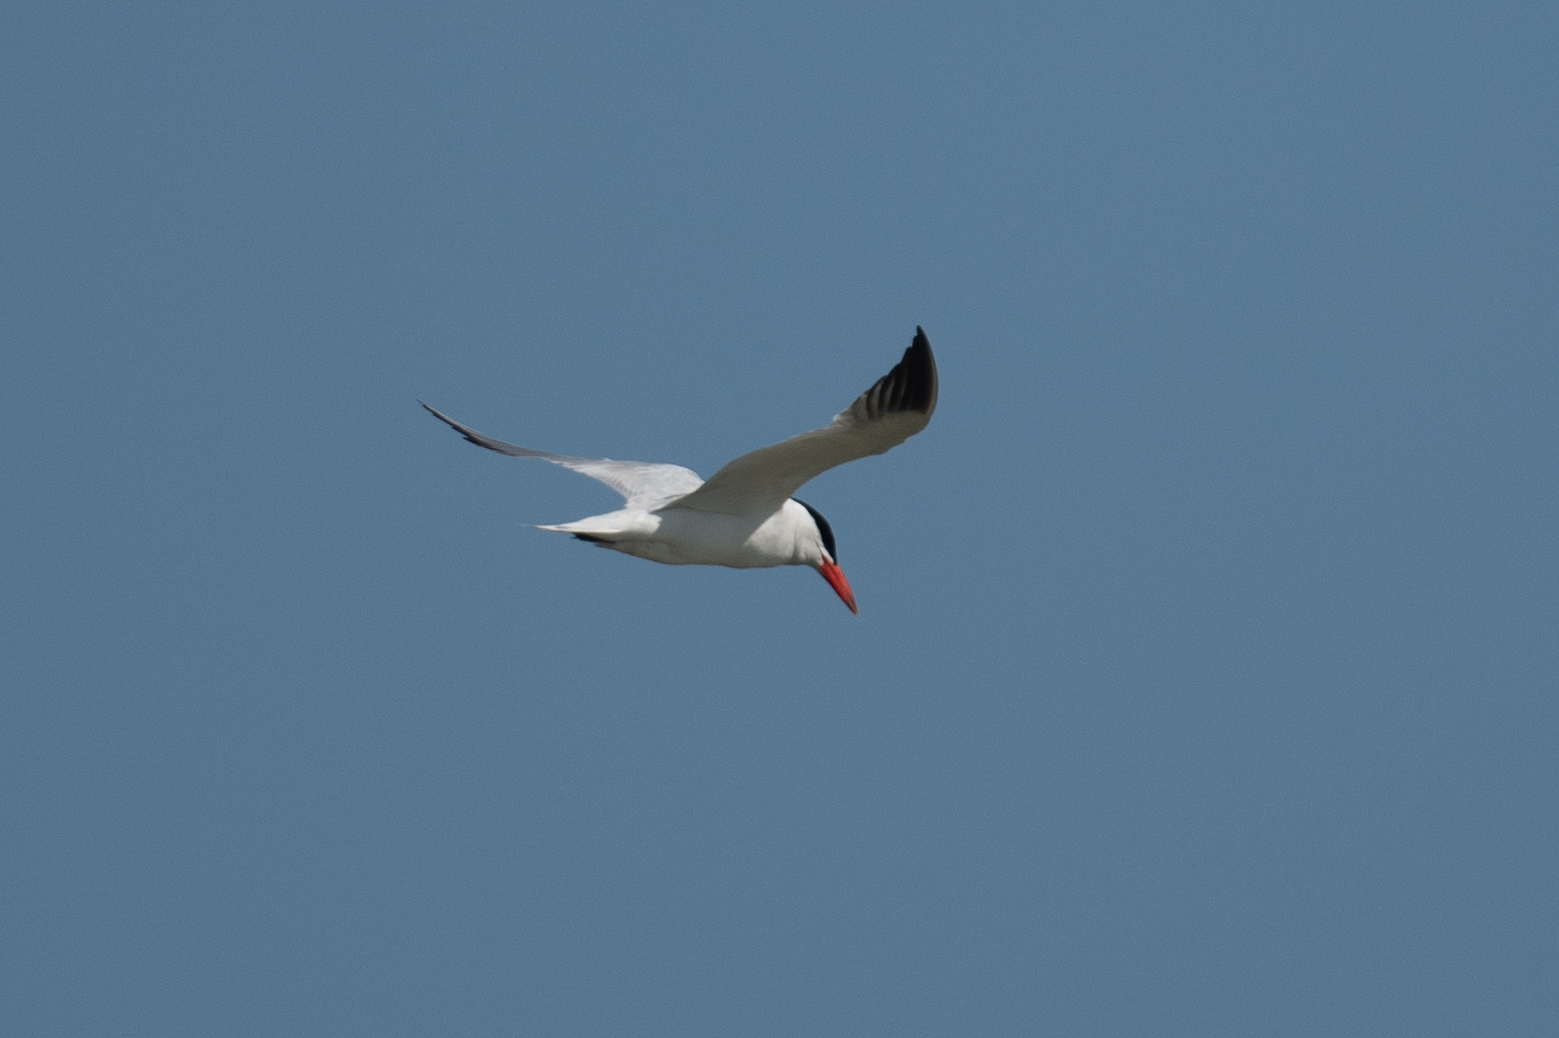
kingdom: Animalia
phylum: Chordata
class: Aves
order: Charadriiformes
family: Laridae
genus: Hydroprogne
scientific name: Hydroprogne caspia
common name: Caspian tern
